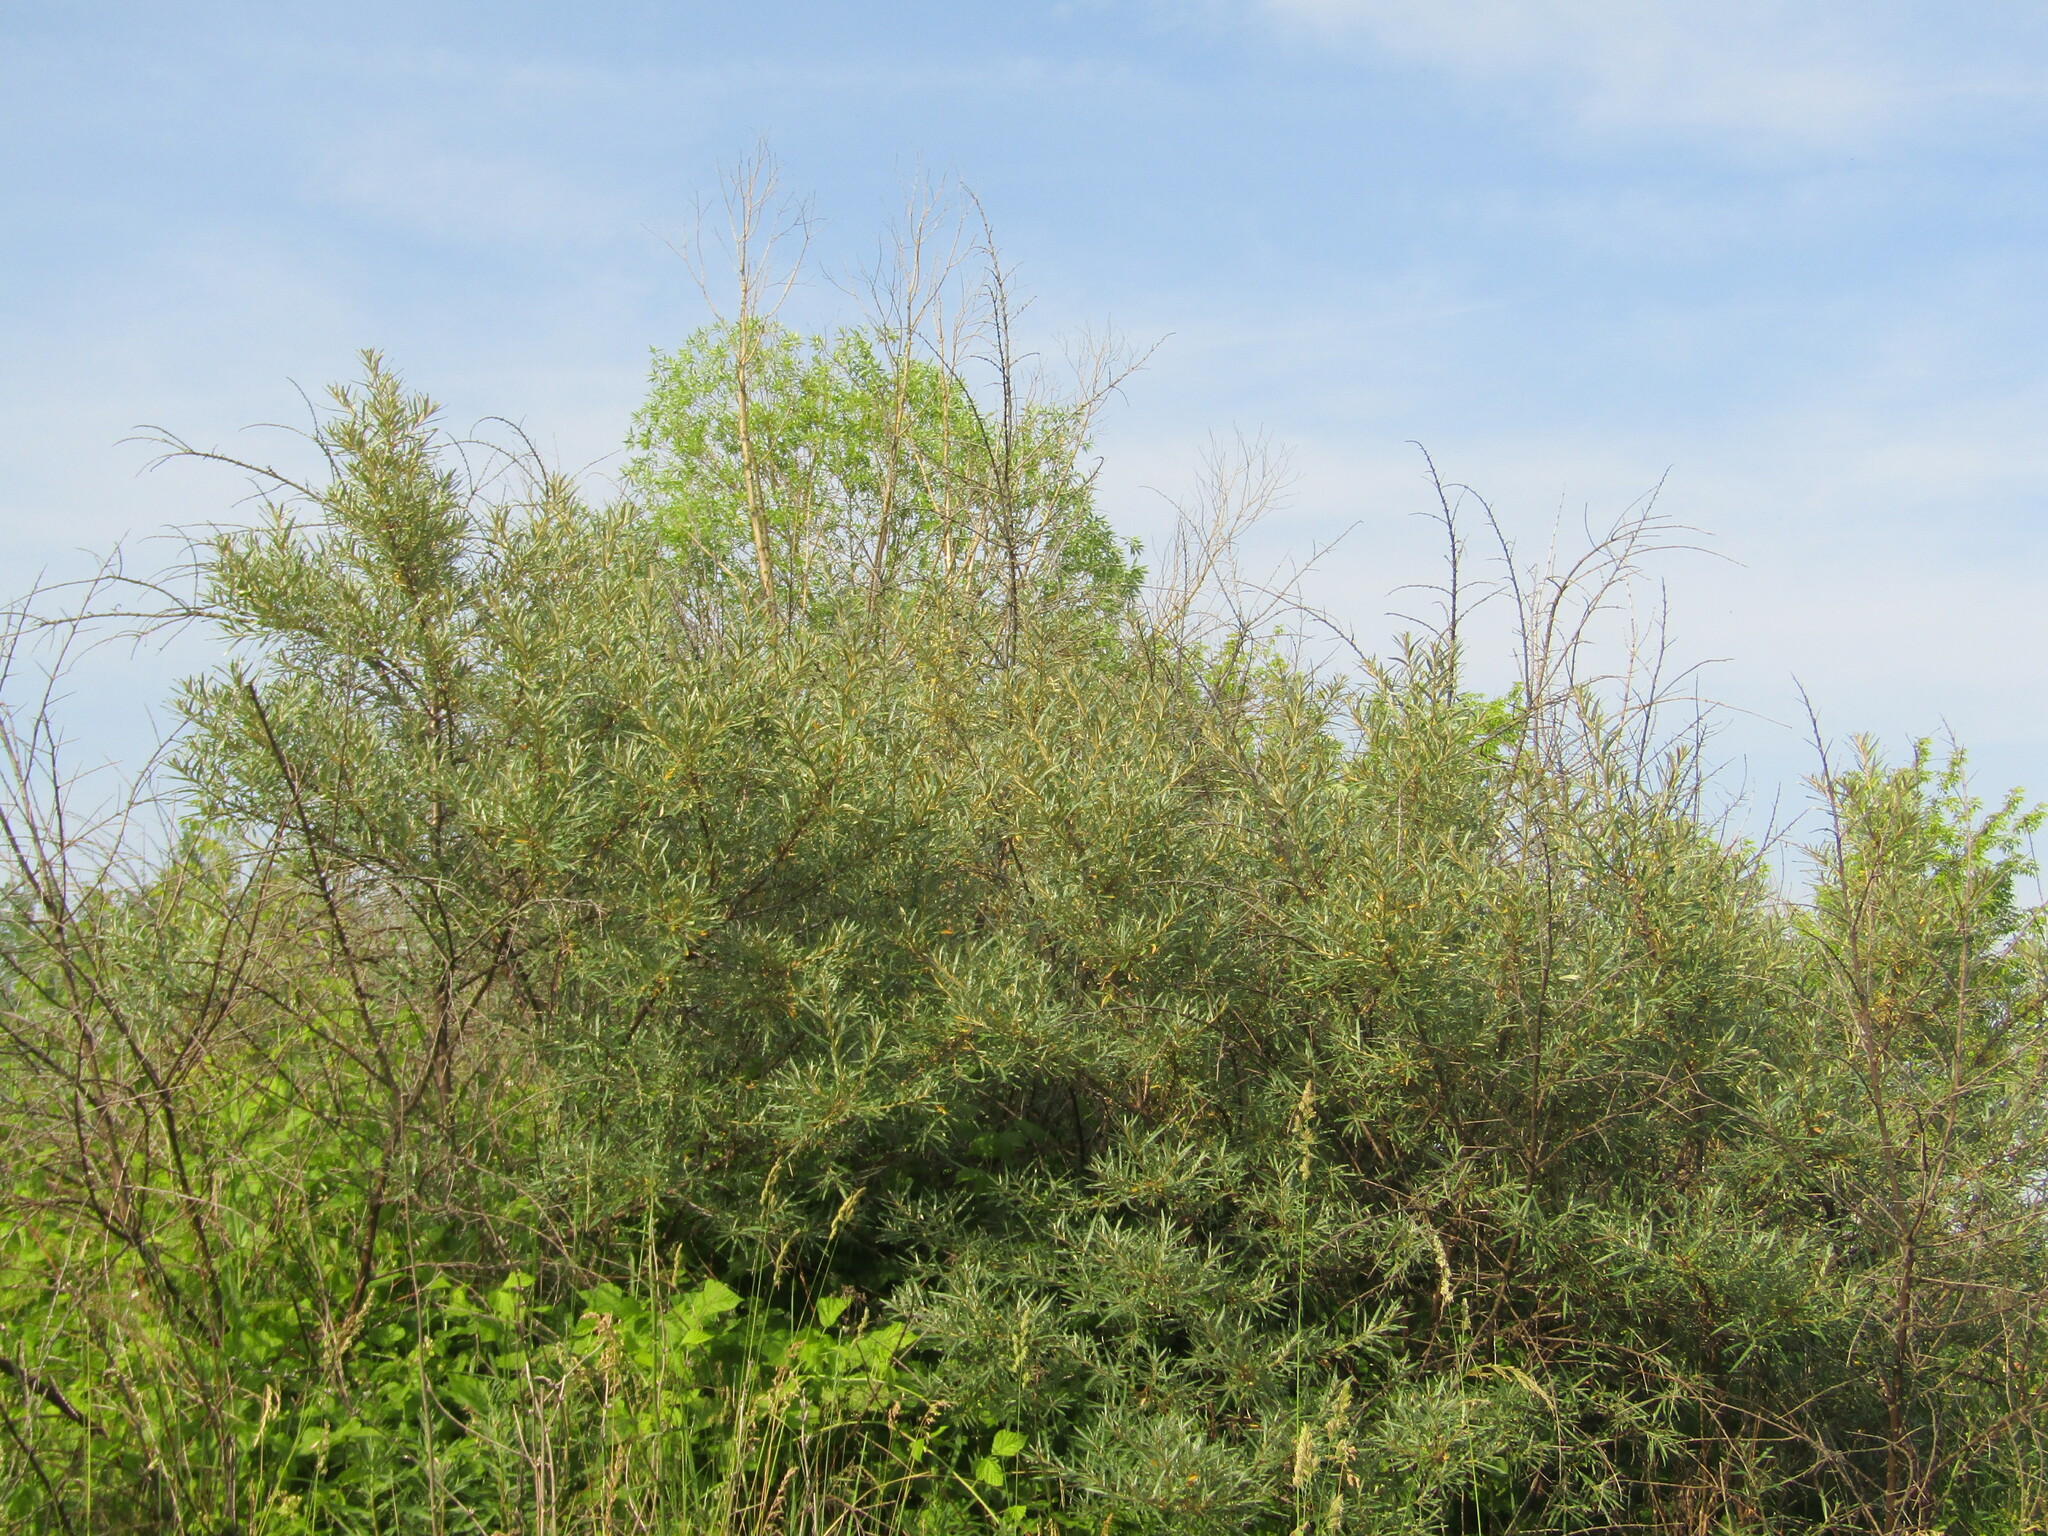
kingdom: Plantae
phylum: Tracheophyta
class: Magnoliopsida
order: Rosales
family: Elaeagnaceae
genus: Hippophae
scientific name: Hippophae rhamnoides
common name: Sea-buckthorn
